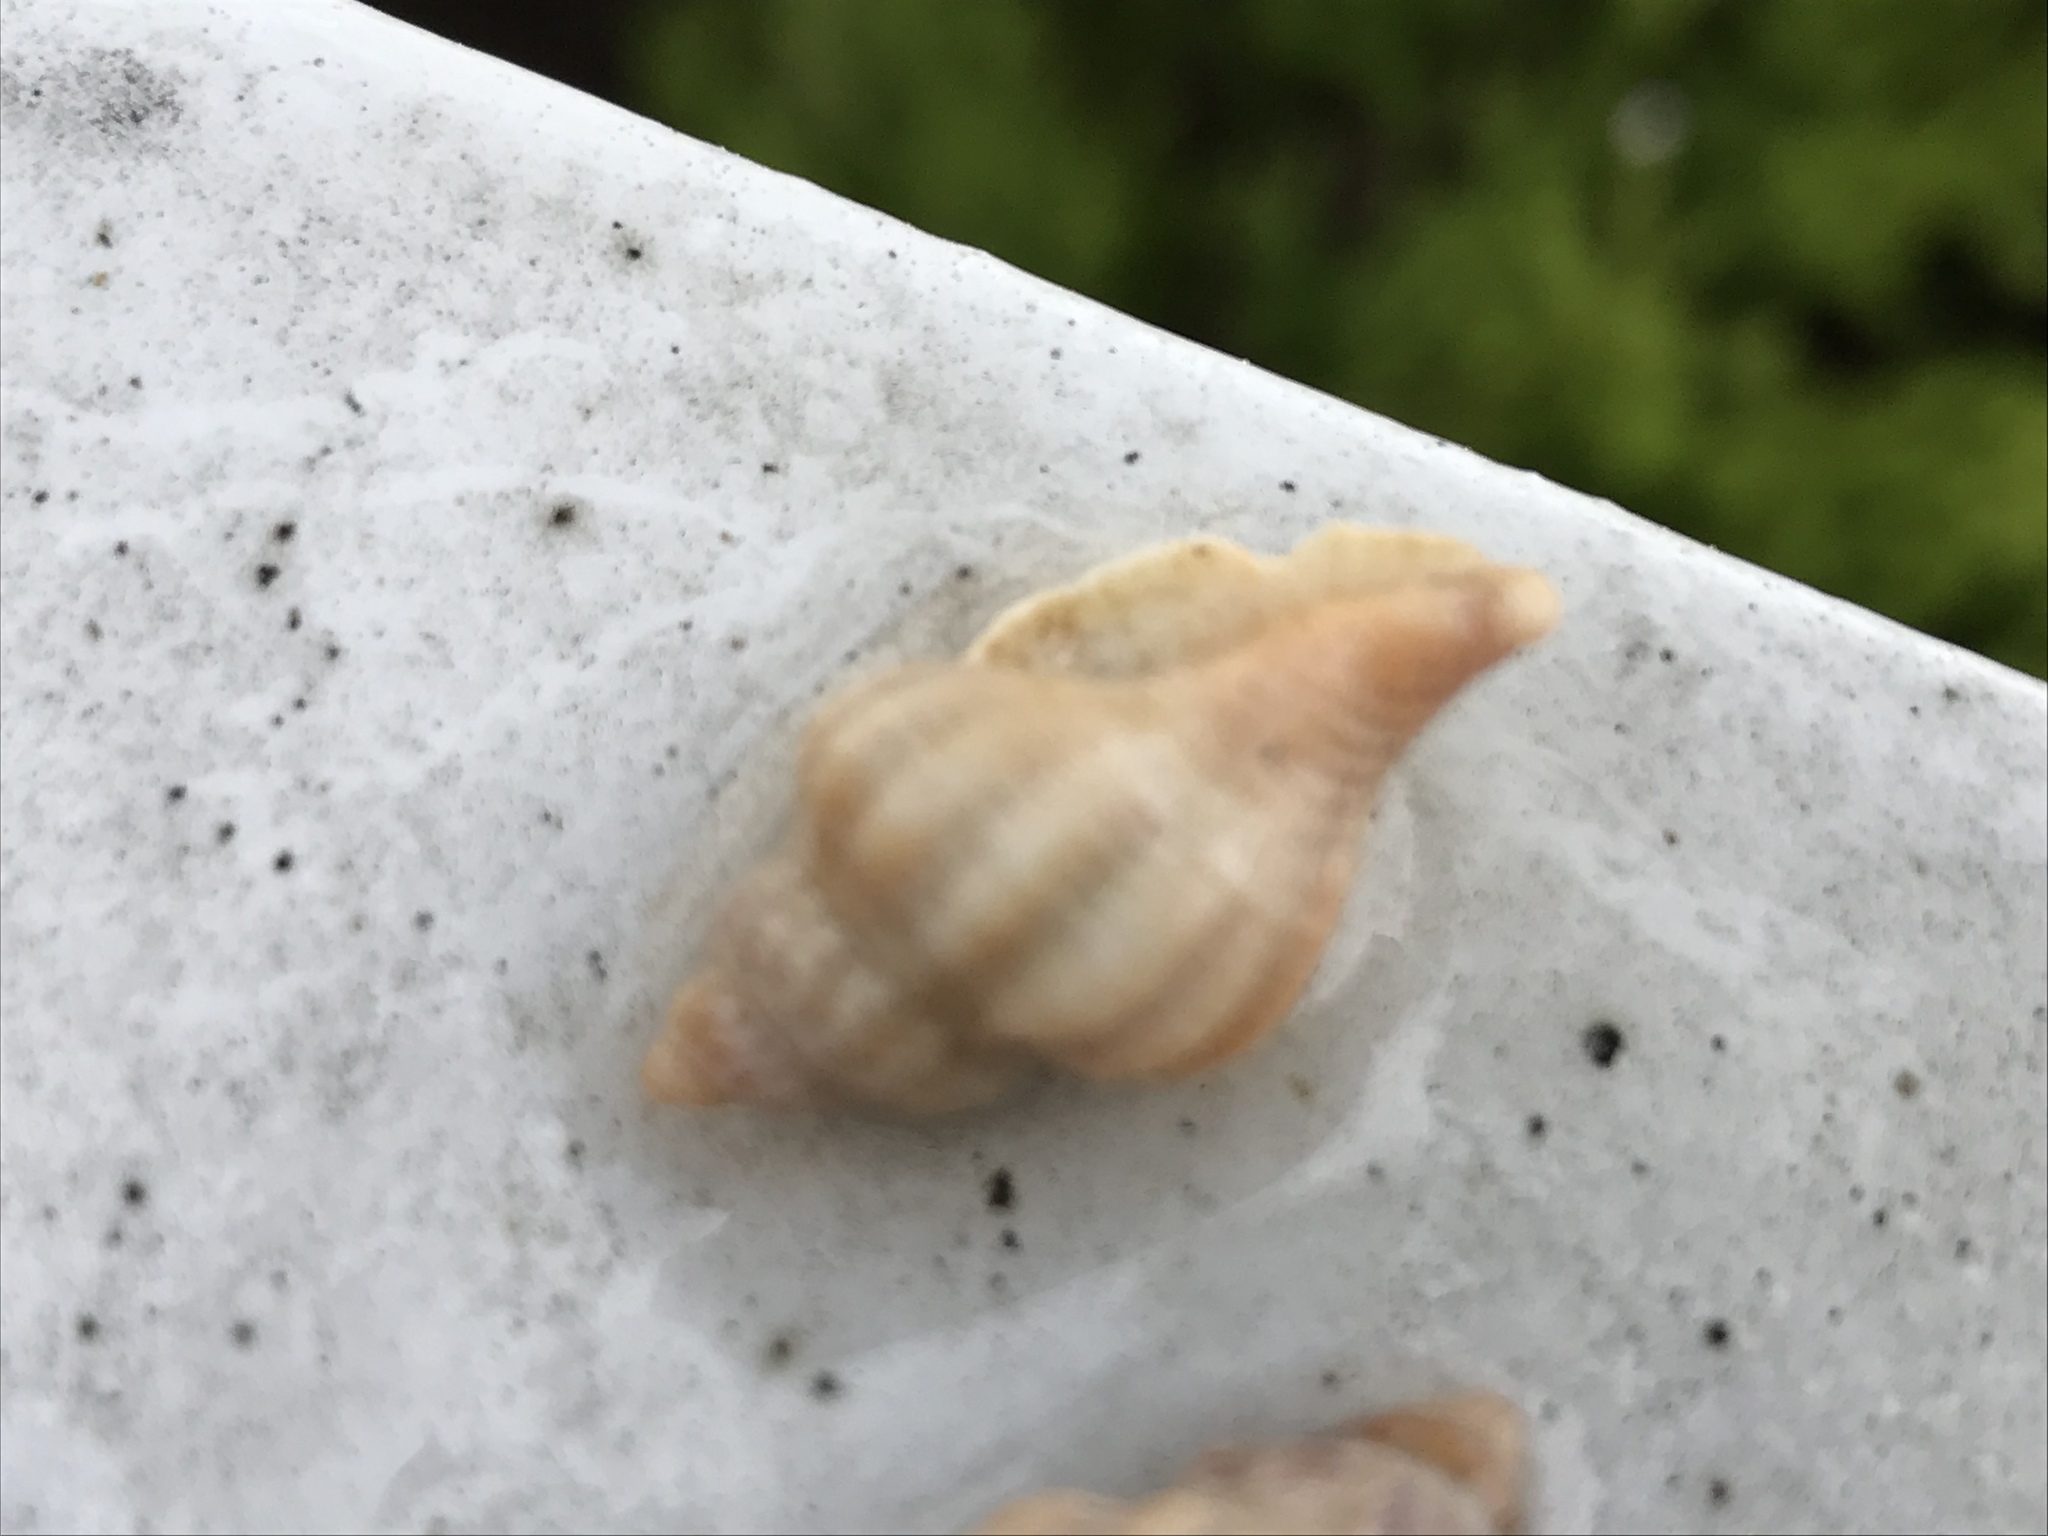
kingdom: Animalia
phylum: Mollusca
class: Gastropoda
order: Neogastropoda
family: Muricidae
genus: Urosalpinx
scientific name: Urosalpinx cinerea
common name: American sting winkle
